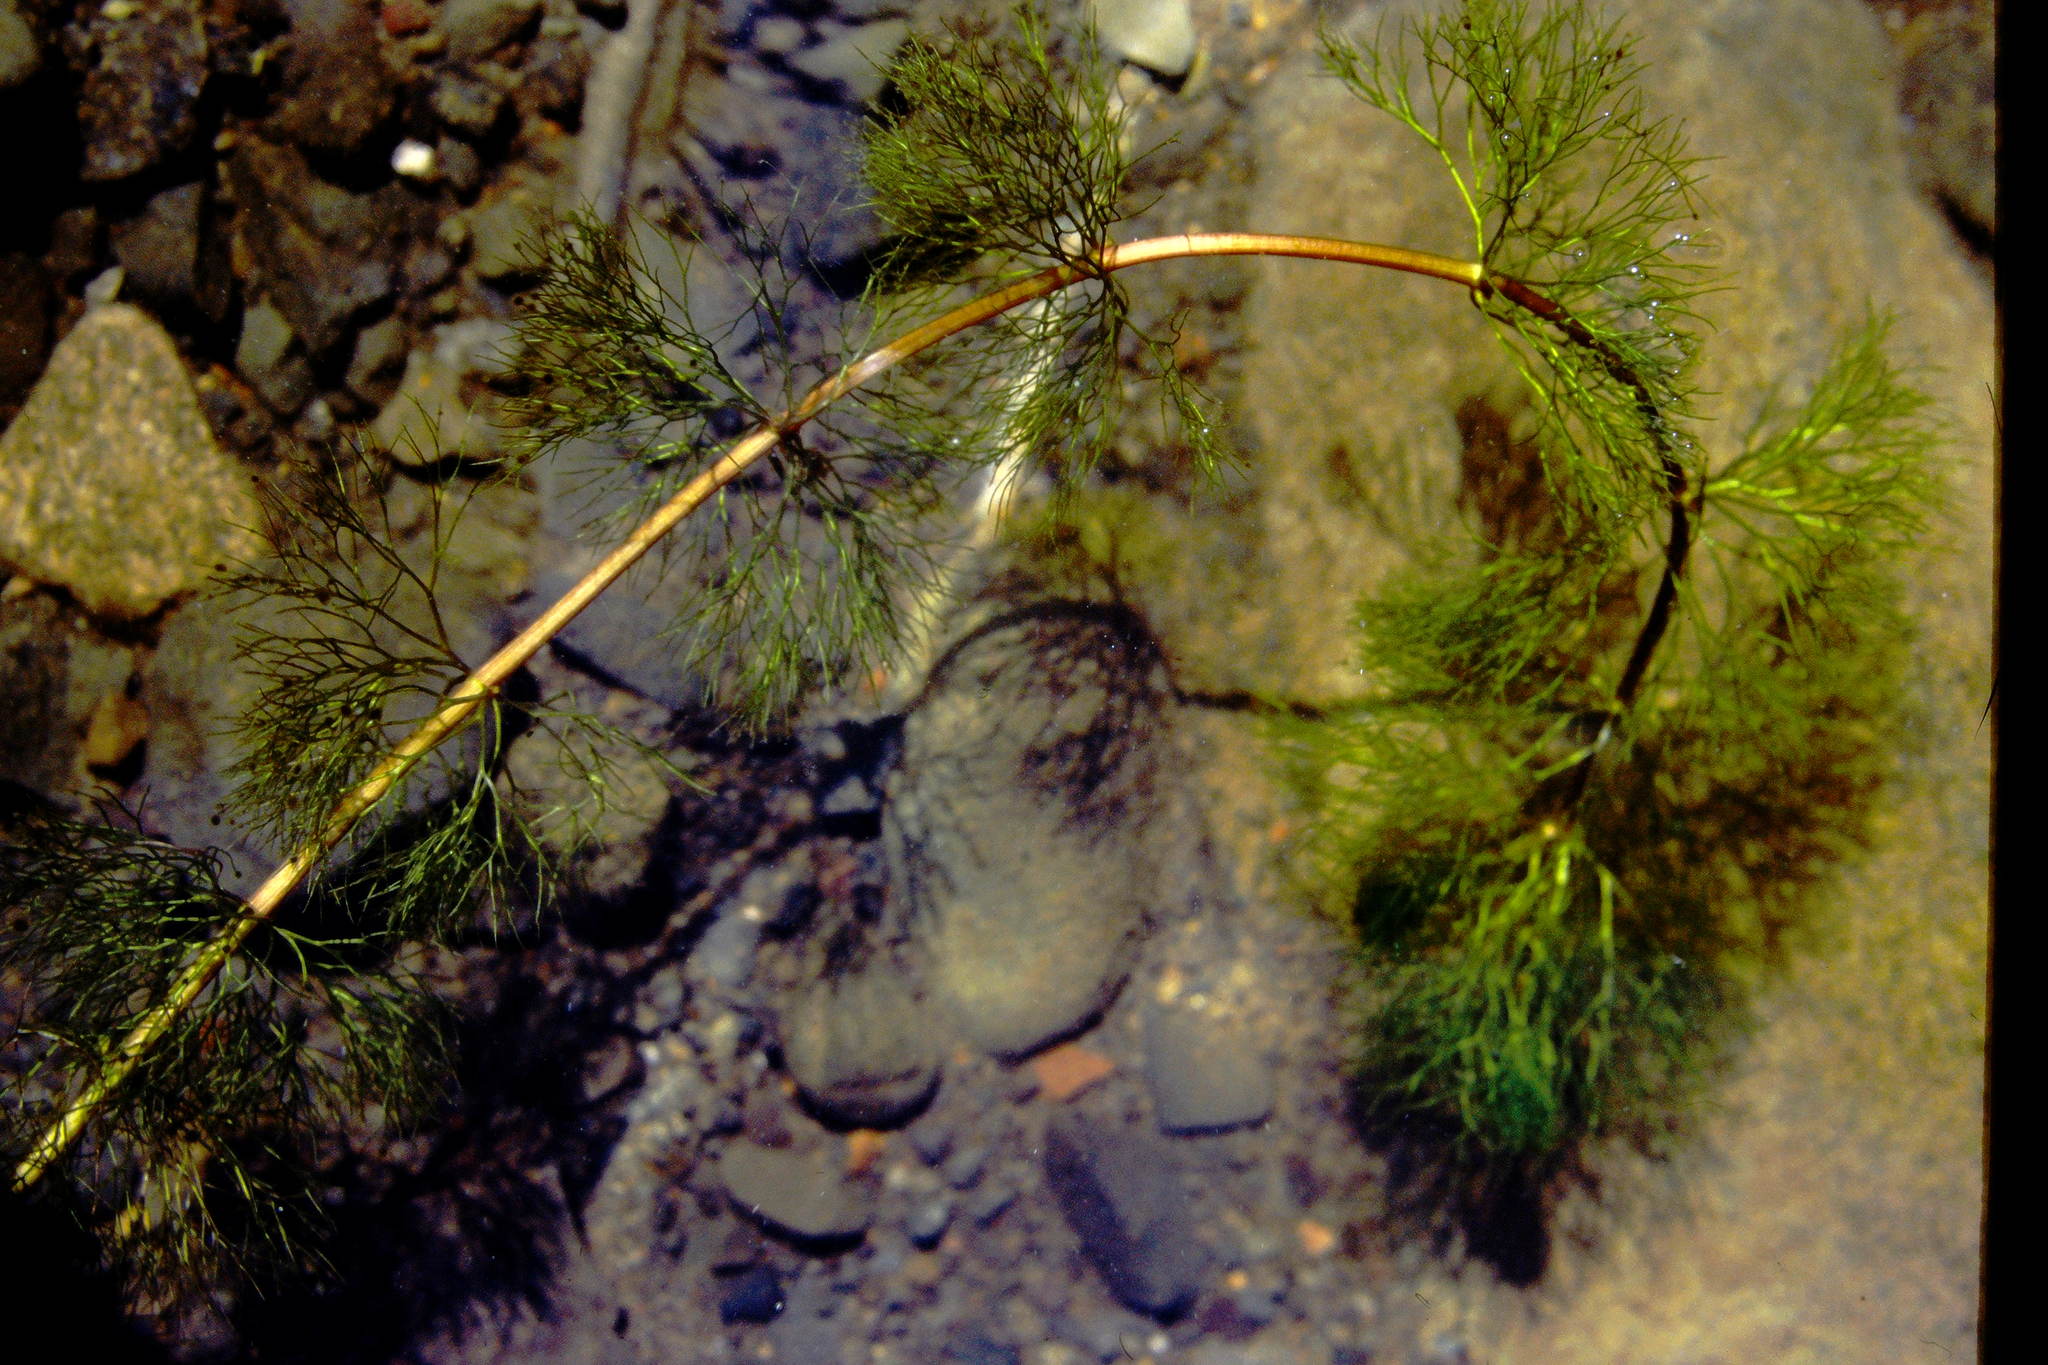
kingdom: Plantae
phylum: Tracheophyta
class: Magnoliopsida
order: Asterales
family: Asteraceae
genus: Bidens
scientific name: Bidens beckii
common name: Beck's beggarticks
